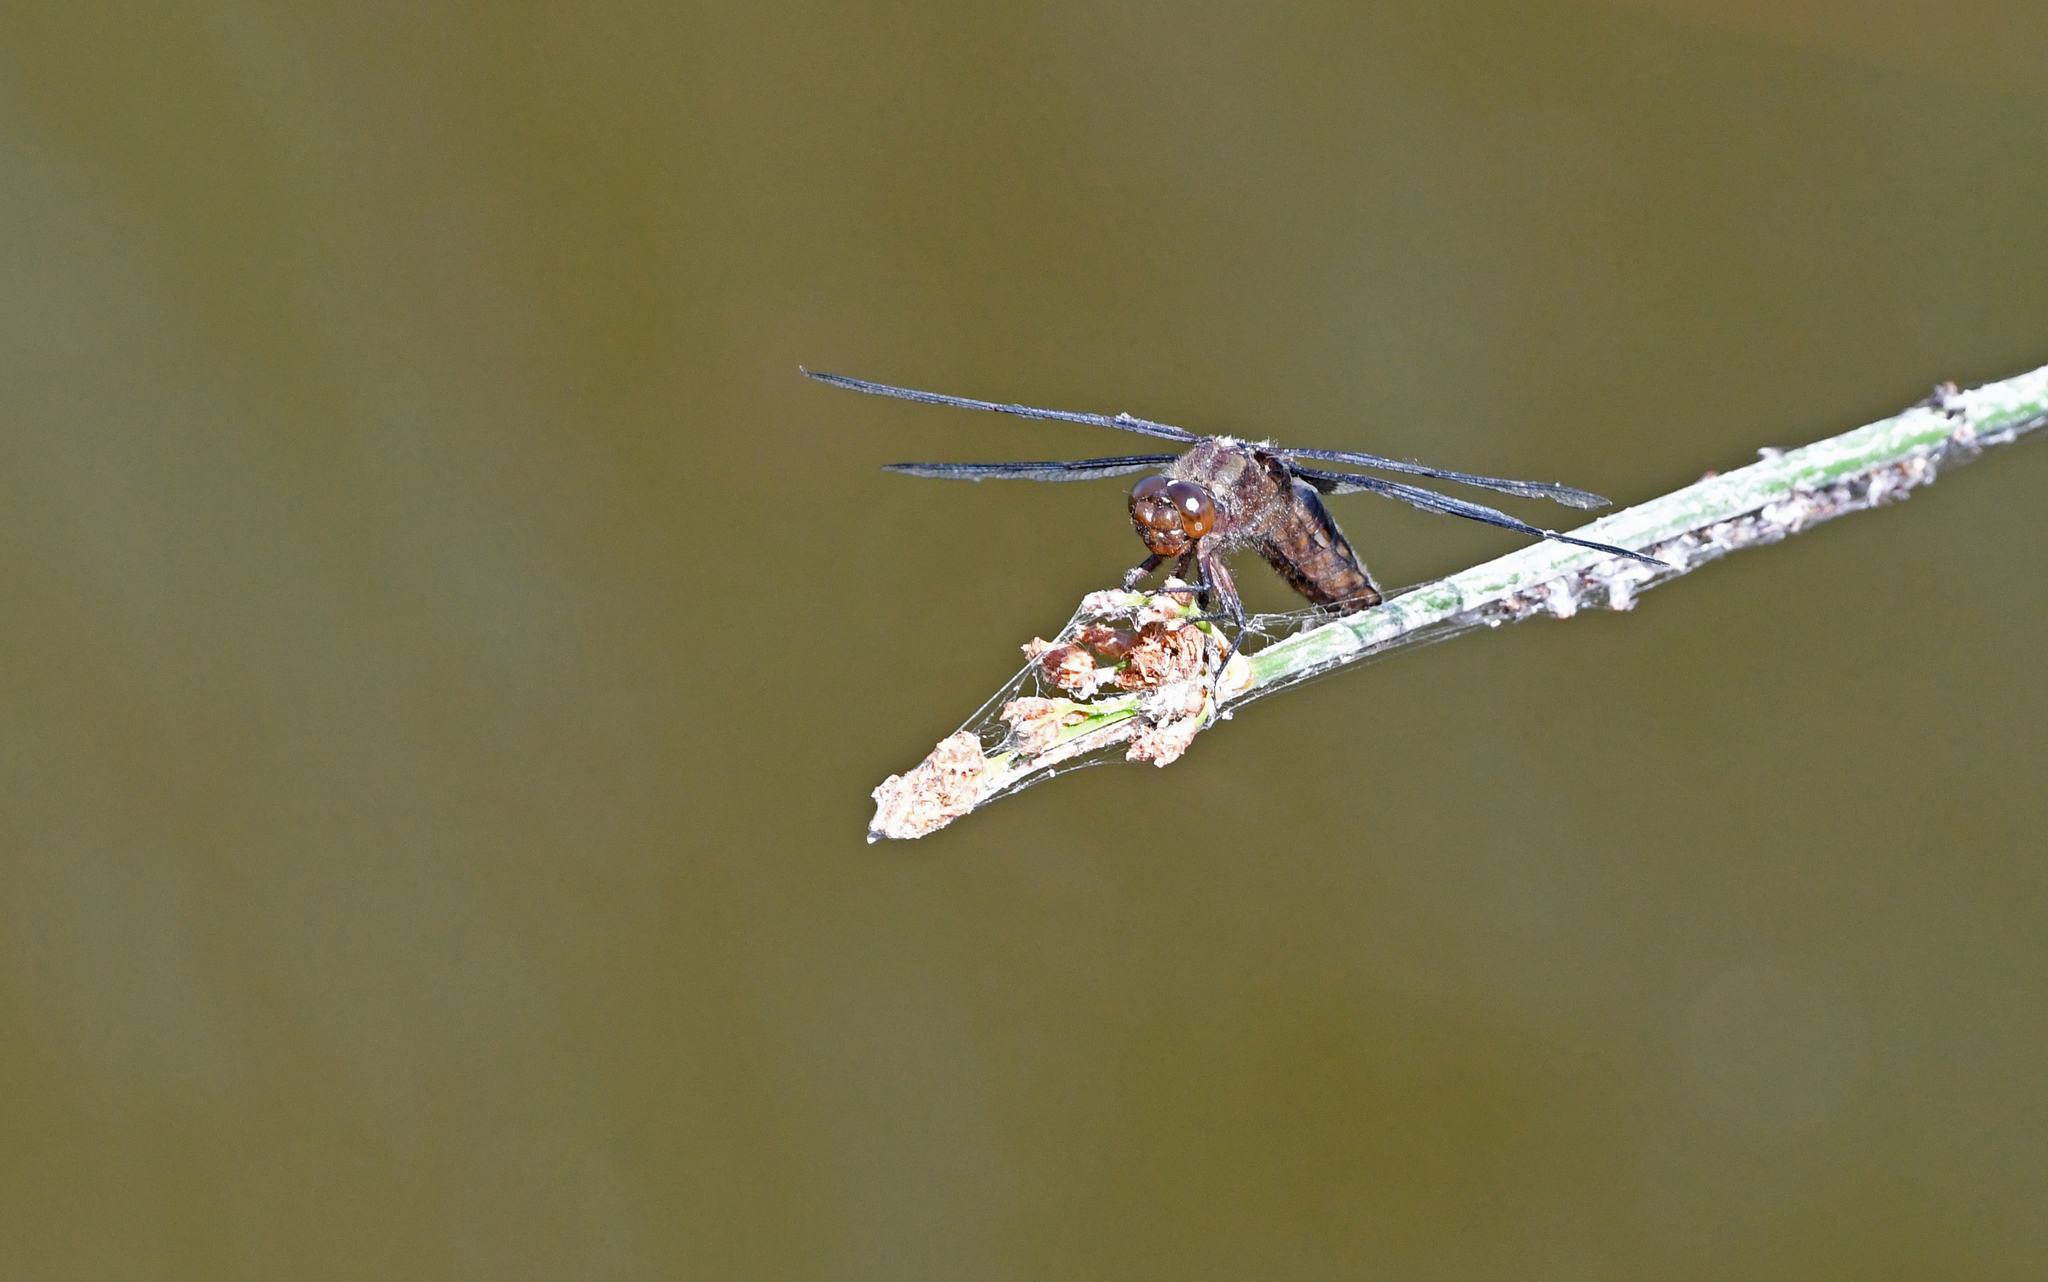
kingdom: Animalia
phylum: Arthropoda
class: Insecta
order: Odonata
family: Libellulidae
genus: Libellula
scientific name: Libellula depressa
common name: Broad-bodied chaser
